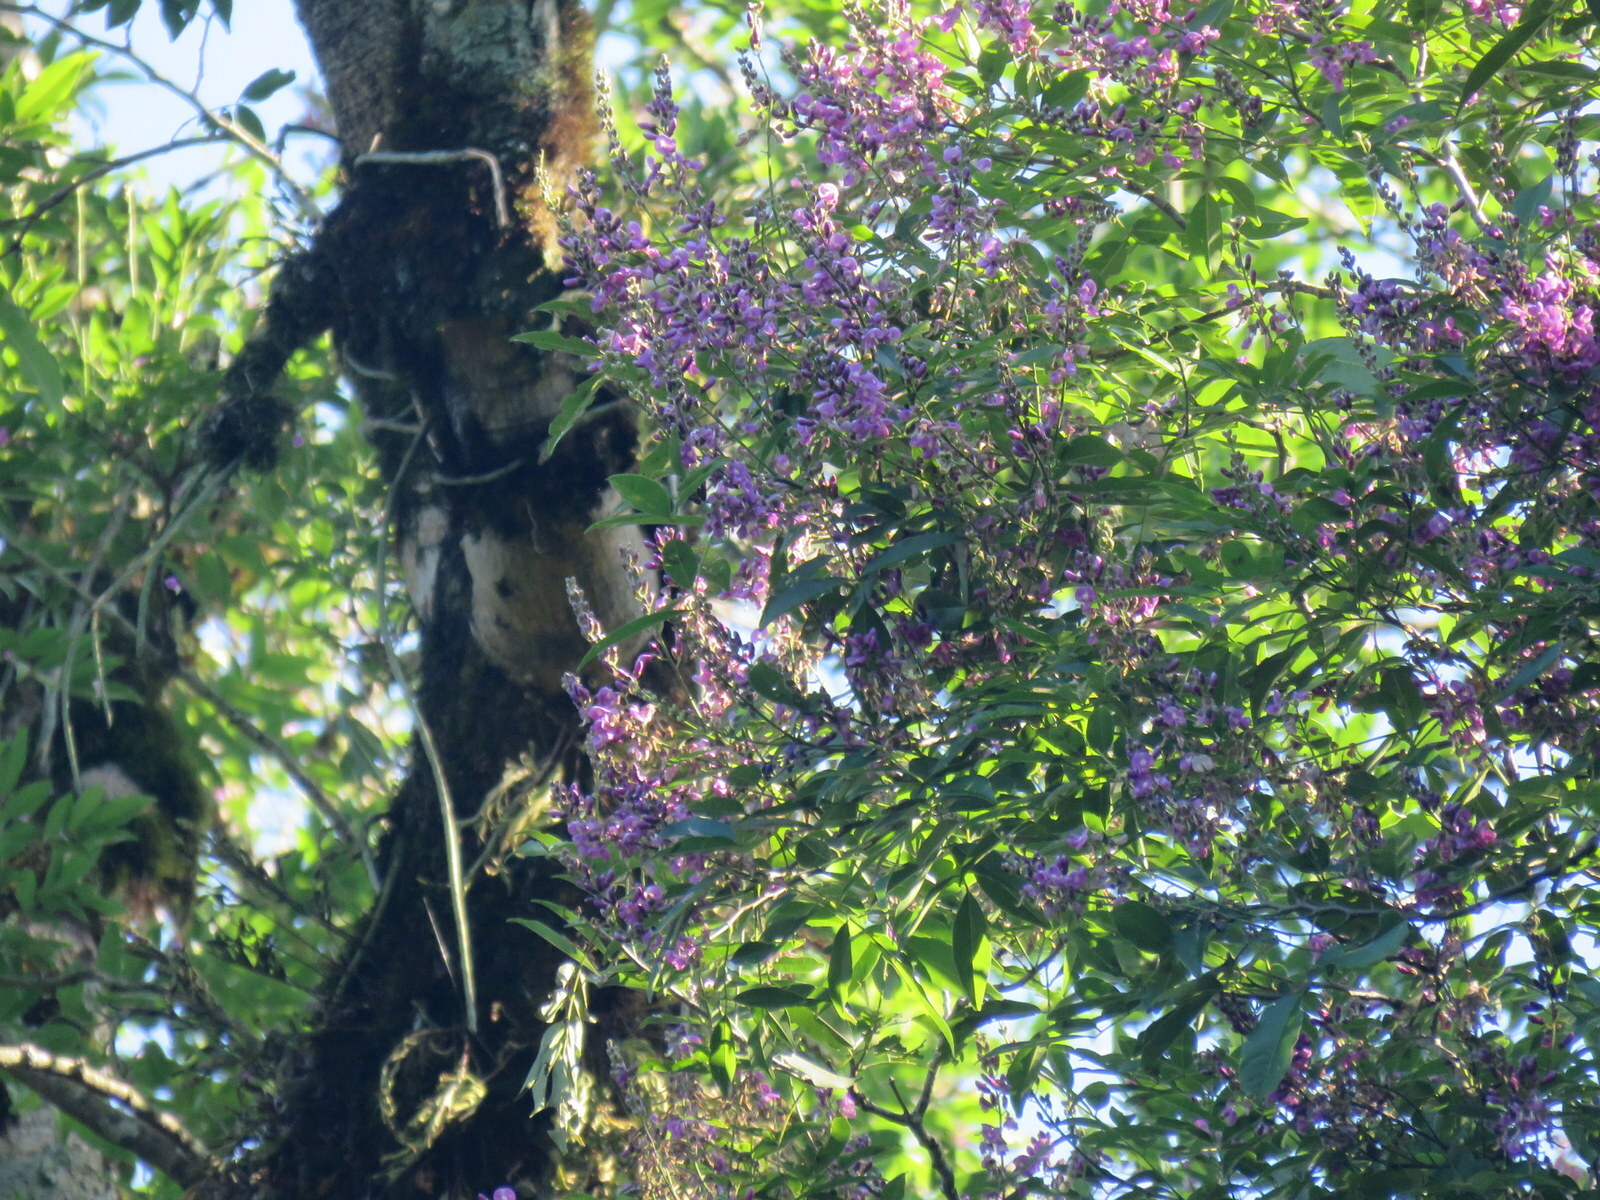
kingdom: Plantae
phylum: Tracheophyta
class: Magnoliopsida
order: Fabales
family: Fabaceae
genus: Lonchocarpus
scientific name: Lonchocarpus nitidus
